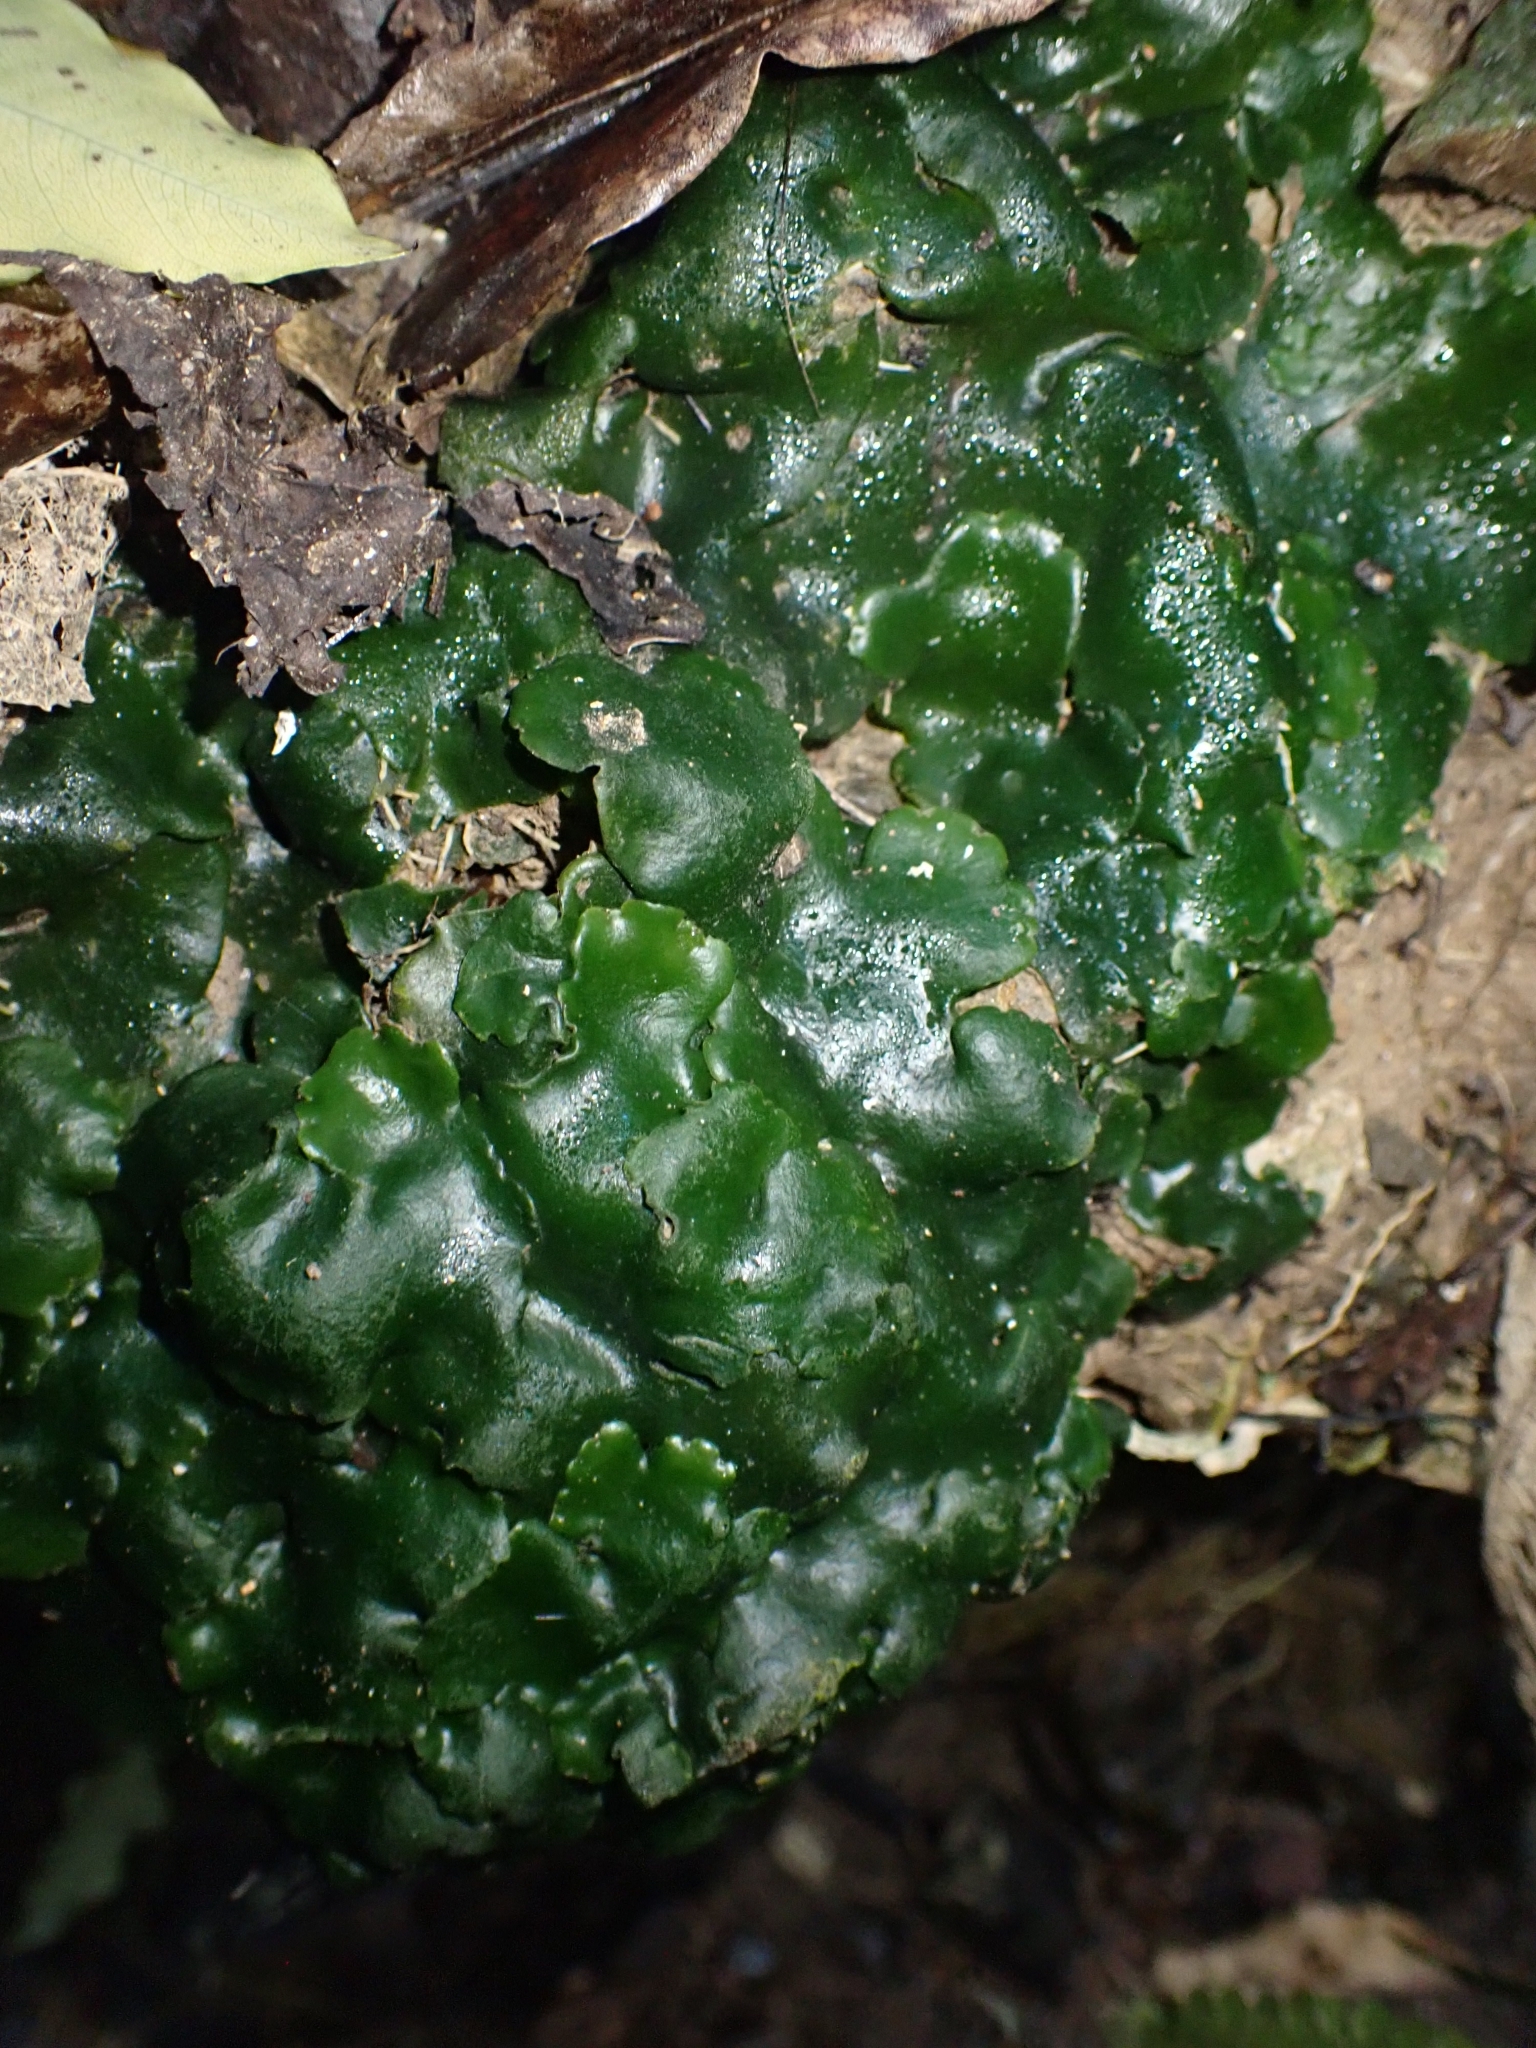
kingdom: Plantae
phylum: Marchantiophyta
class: Marchantiopsida
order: Marchantiales
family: Monocleaceae
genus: Monoclea
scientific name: Monoclea forsteri
